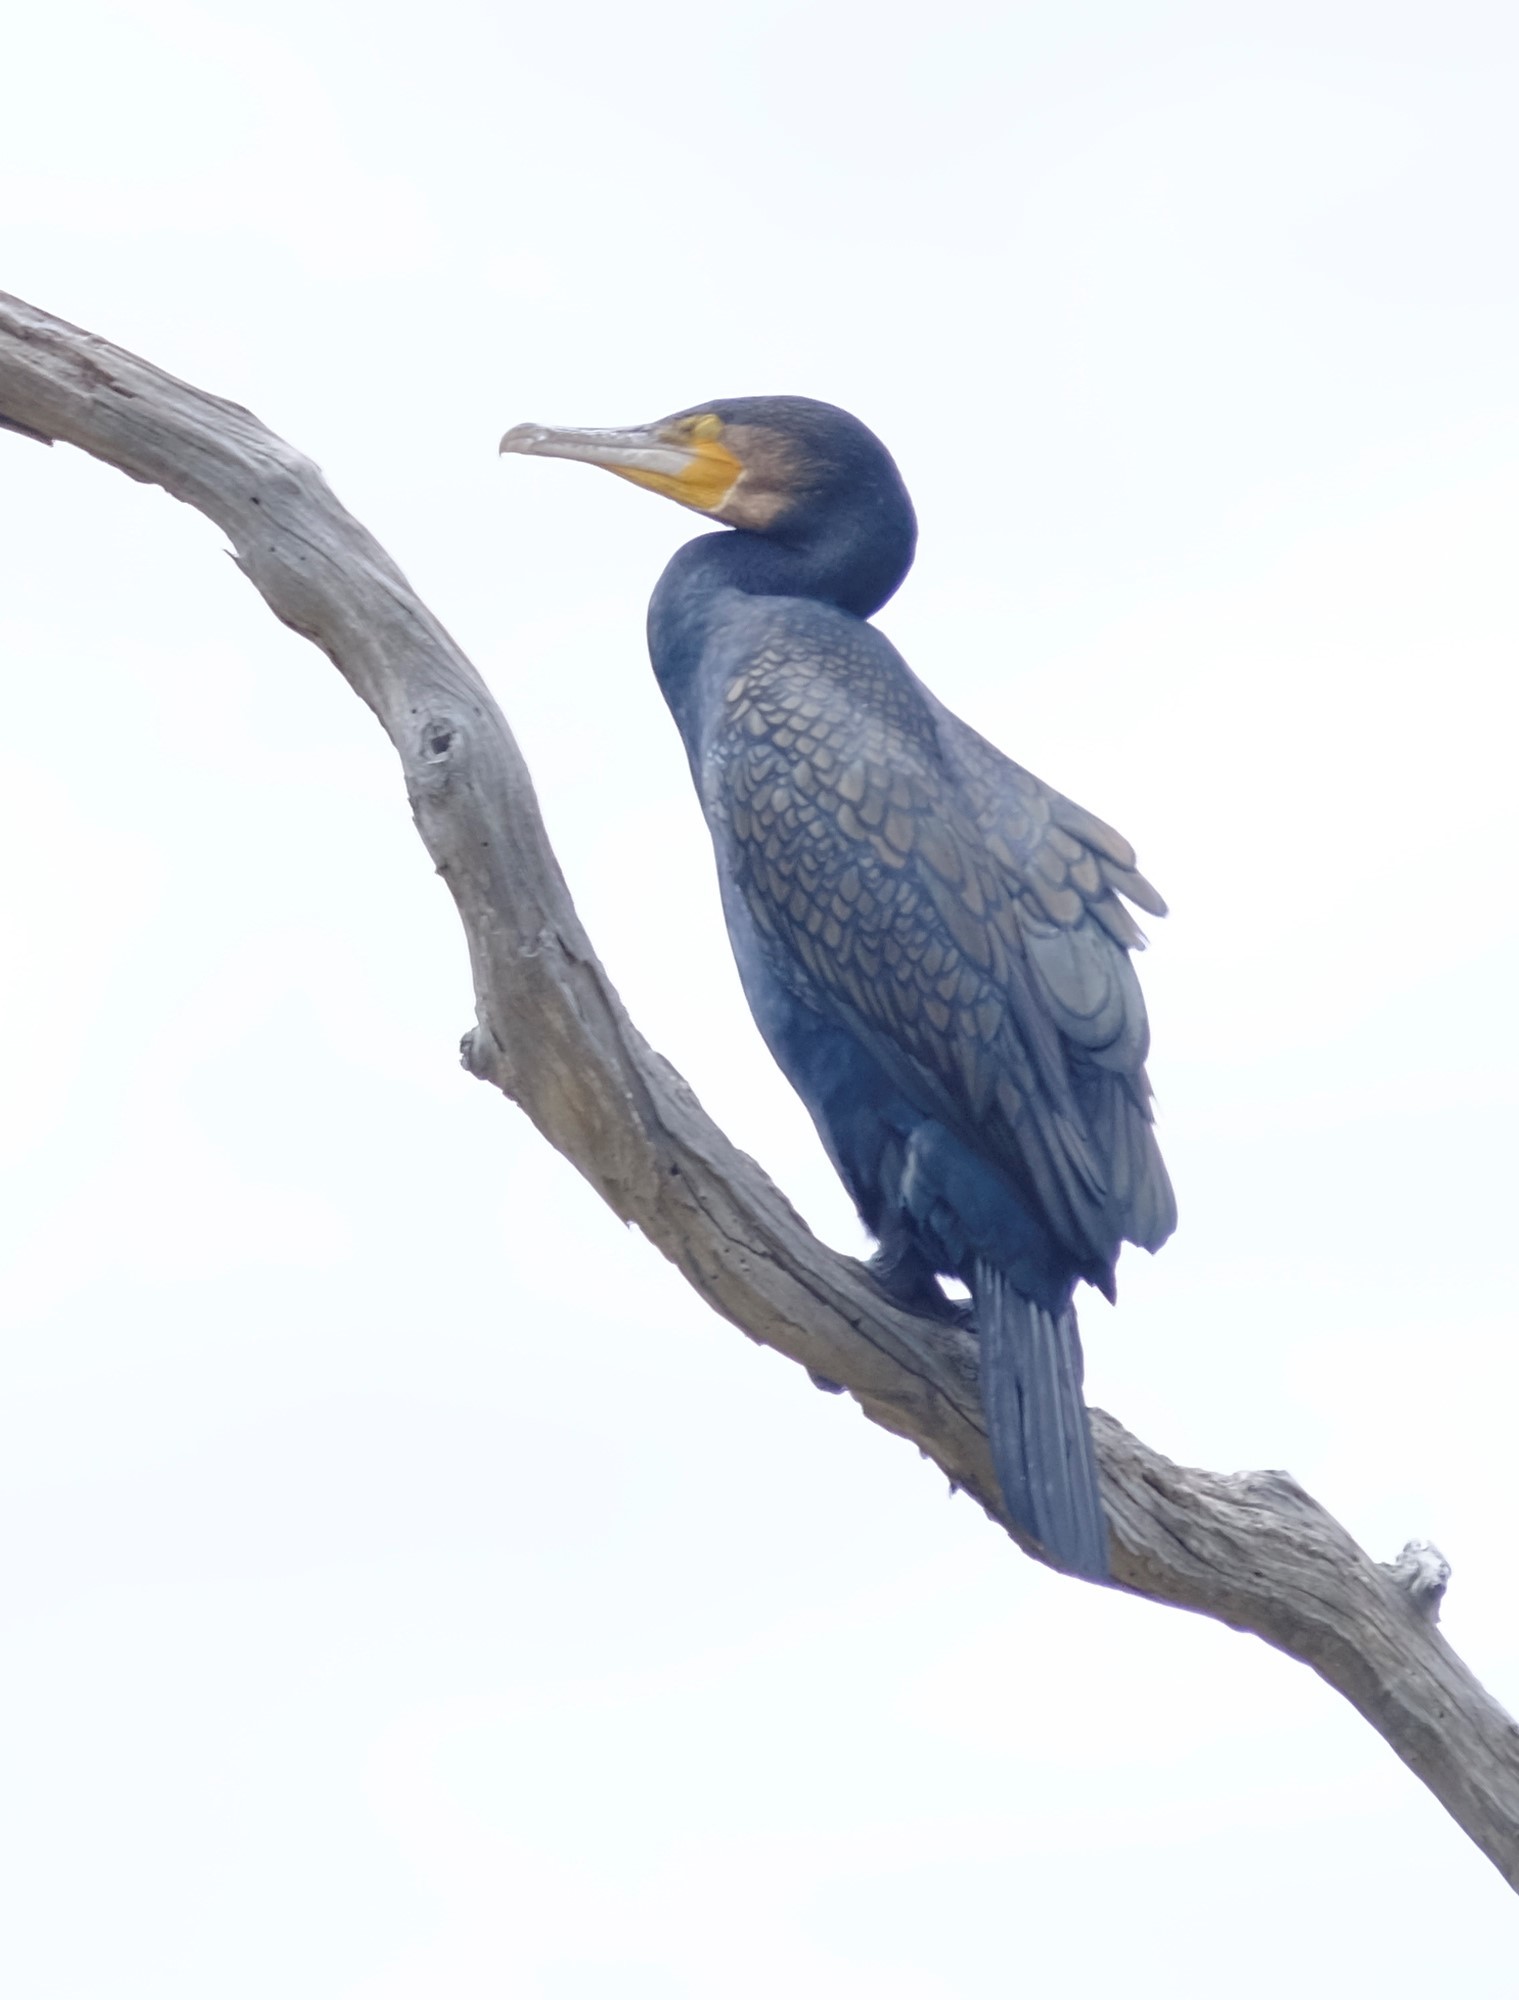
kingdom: Animalia
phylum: Chordata
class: Aves
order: Suliformes
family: Phalacrocoracidae
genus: Phalacrocorax
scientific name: Phalacrocorax carbo
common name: Great cormorant
